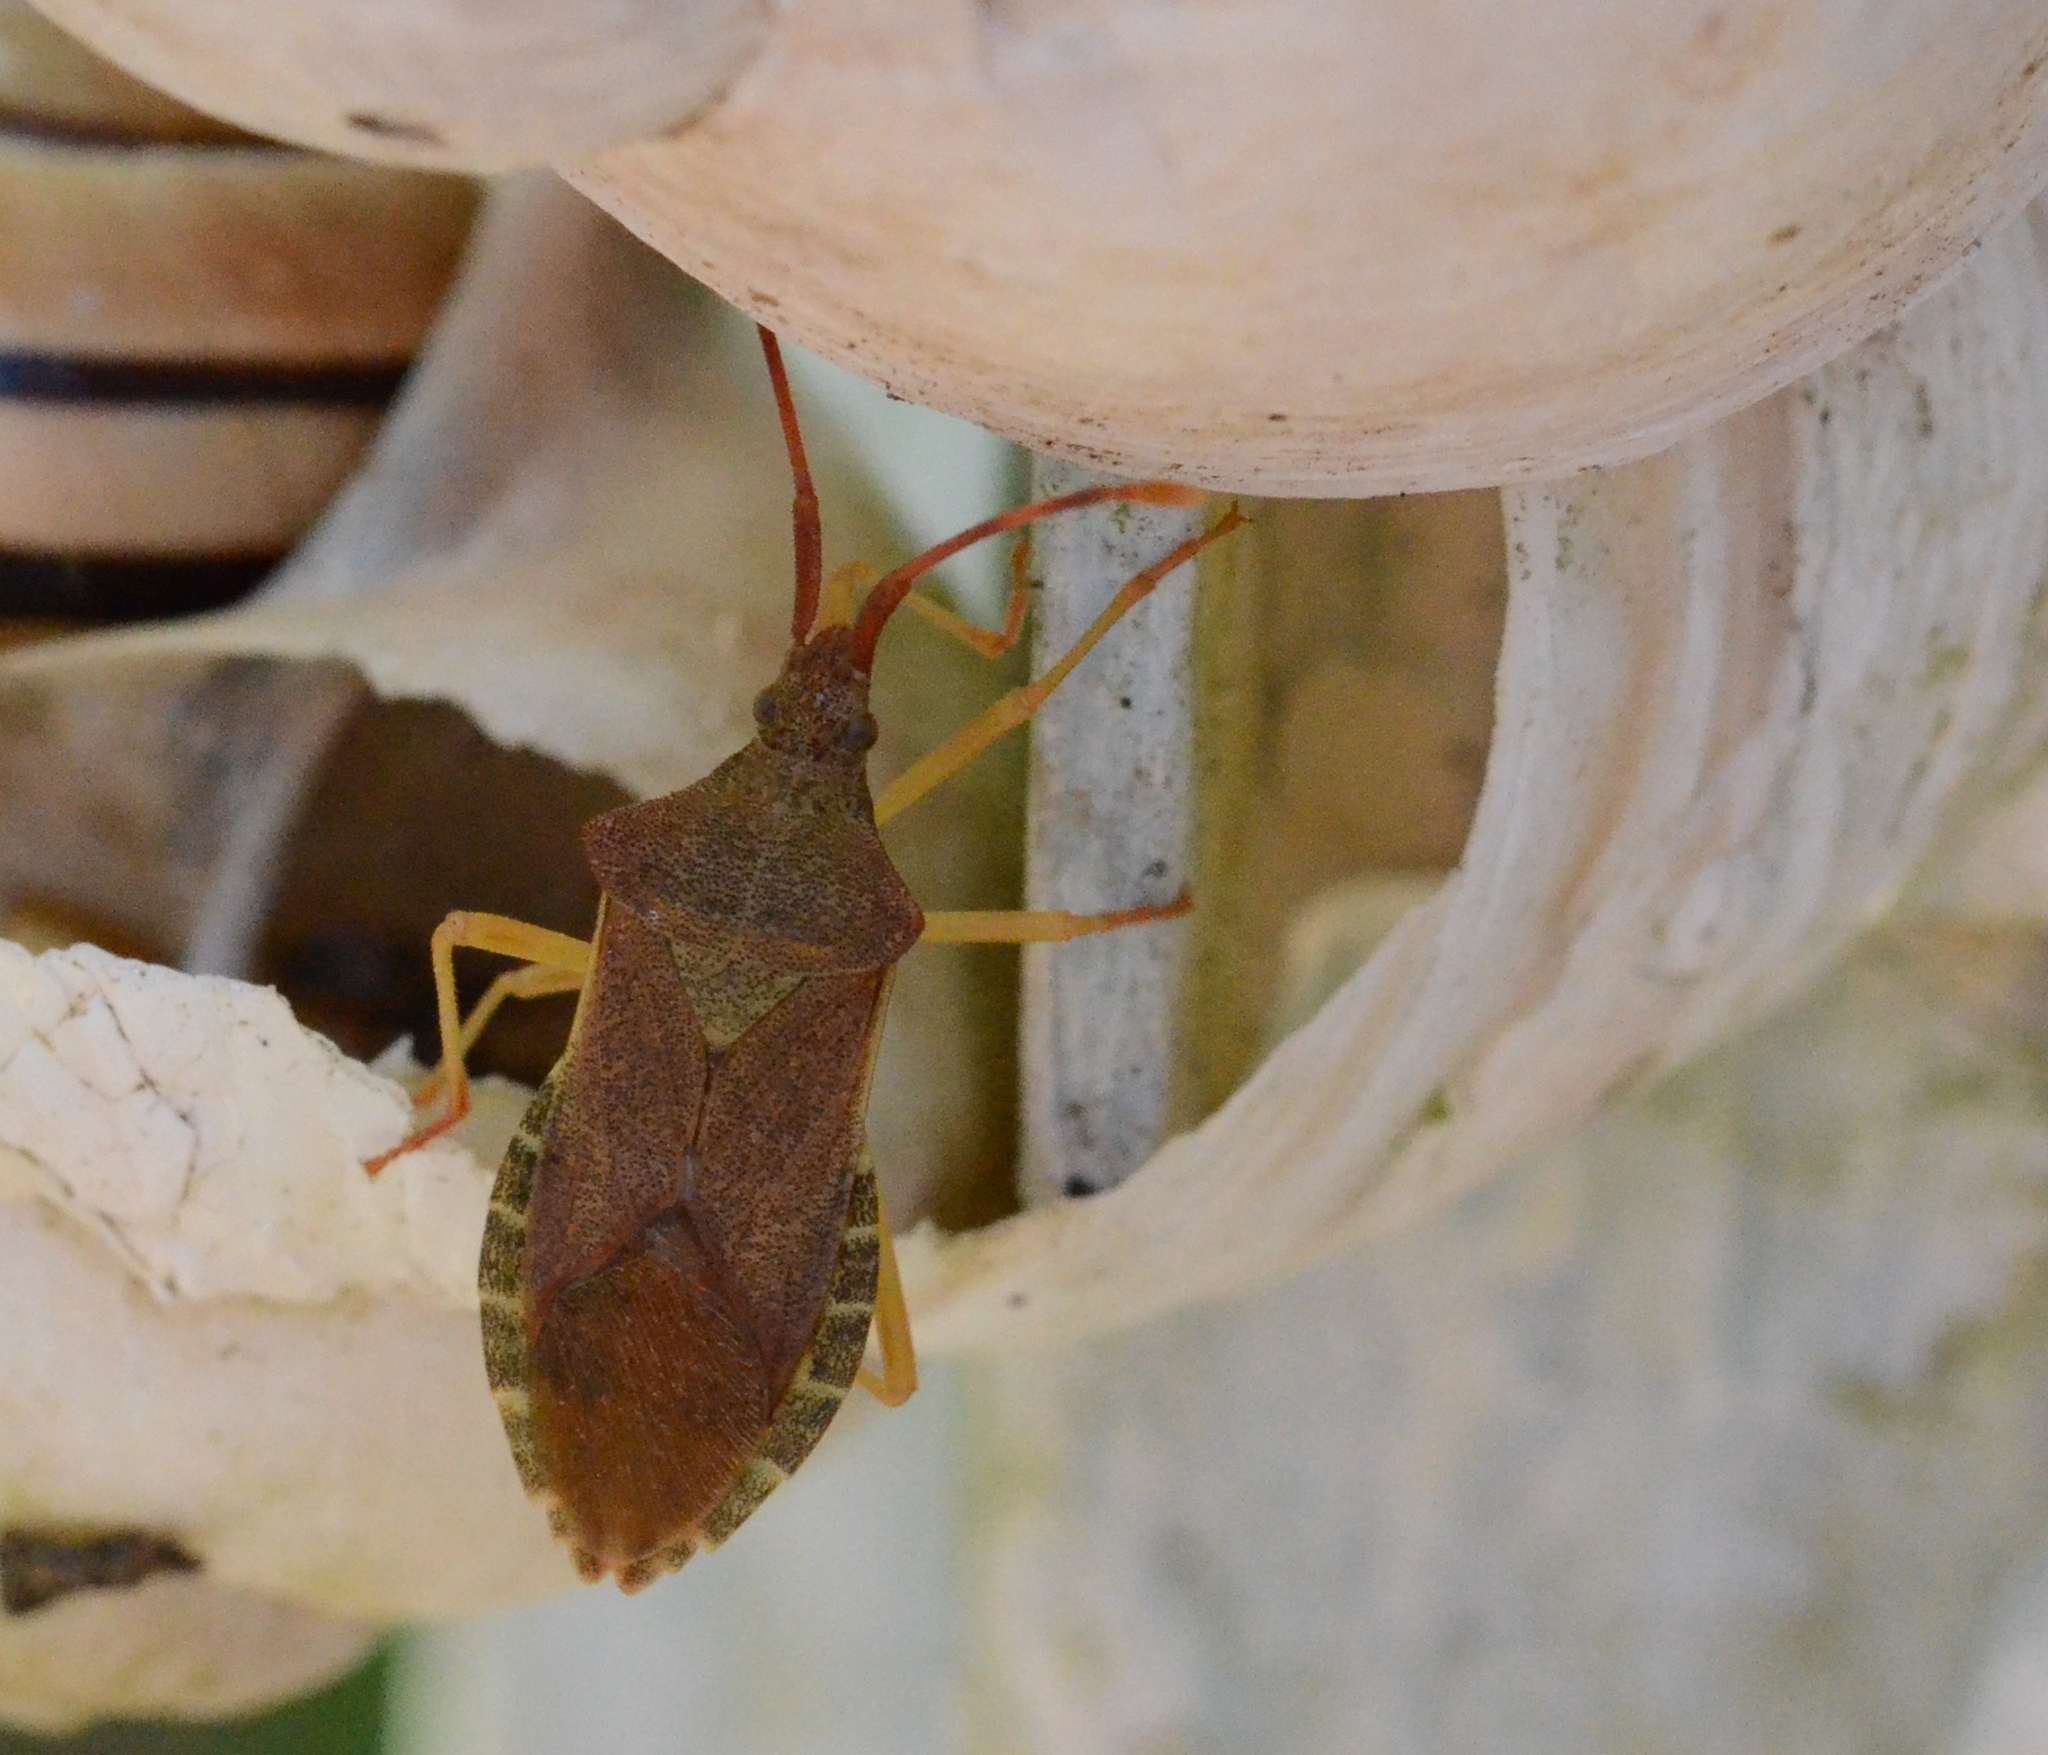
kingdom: Animalia
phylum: Arthropoda
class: Insecta
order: Hemiptera
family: Coreidae
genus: Gonocerus
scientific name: Gonocerus acuteangulatus
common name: Box bug
